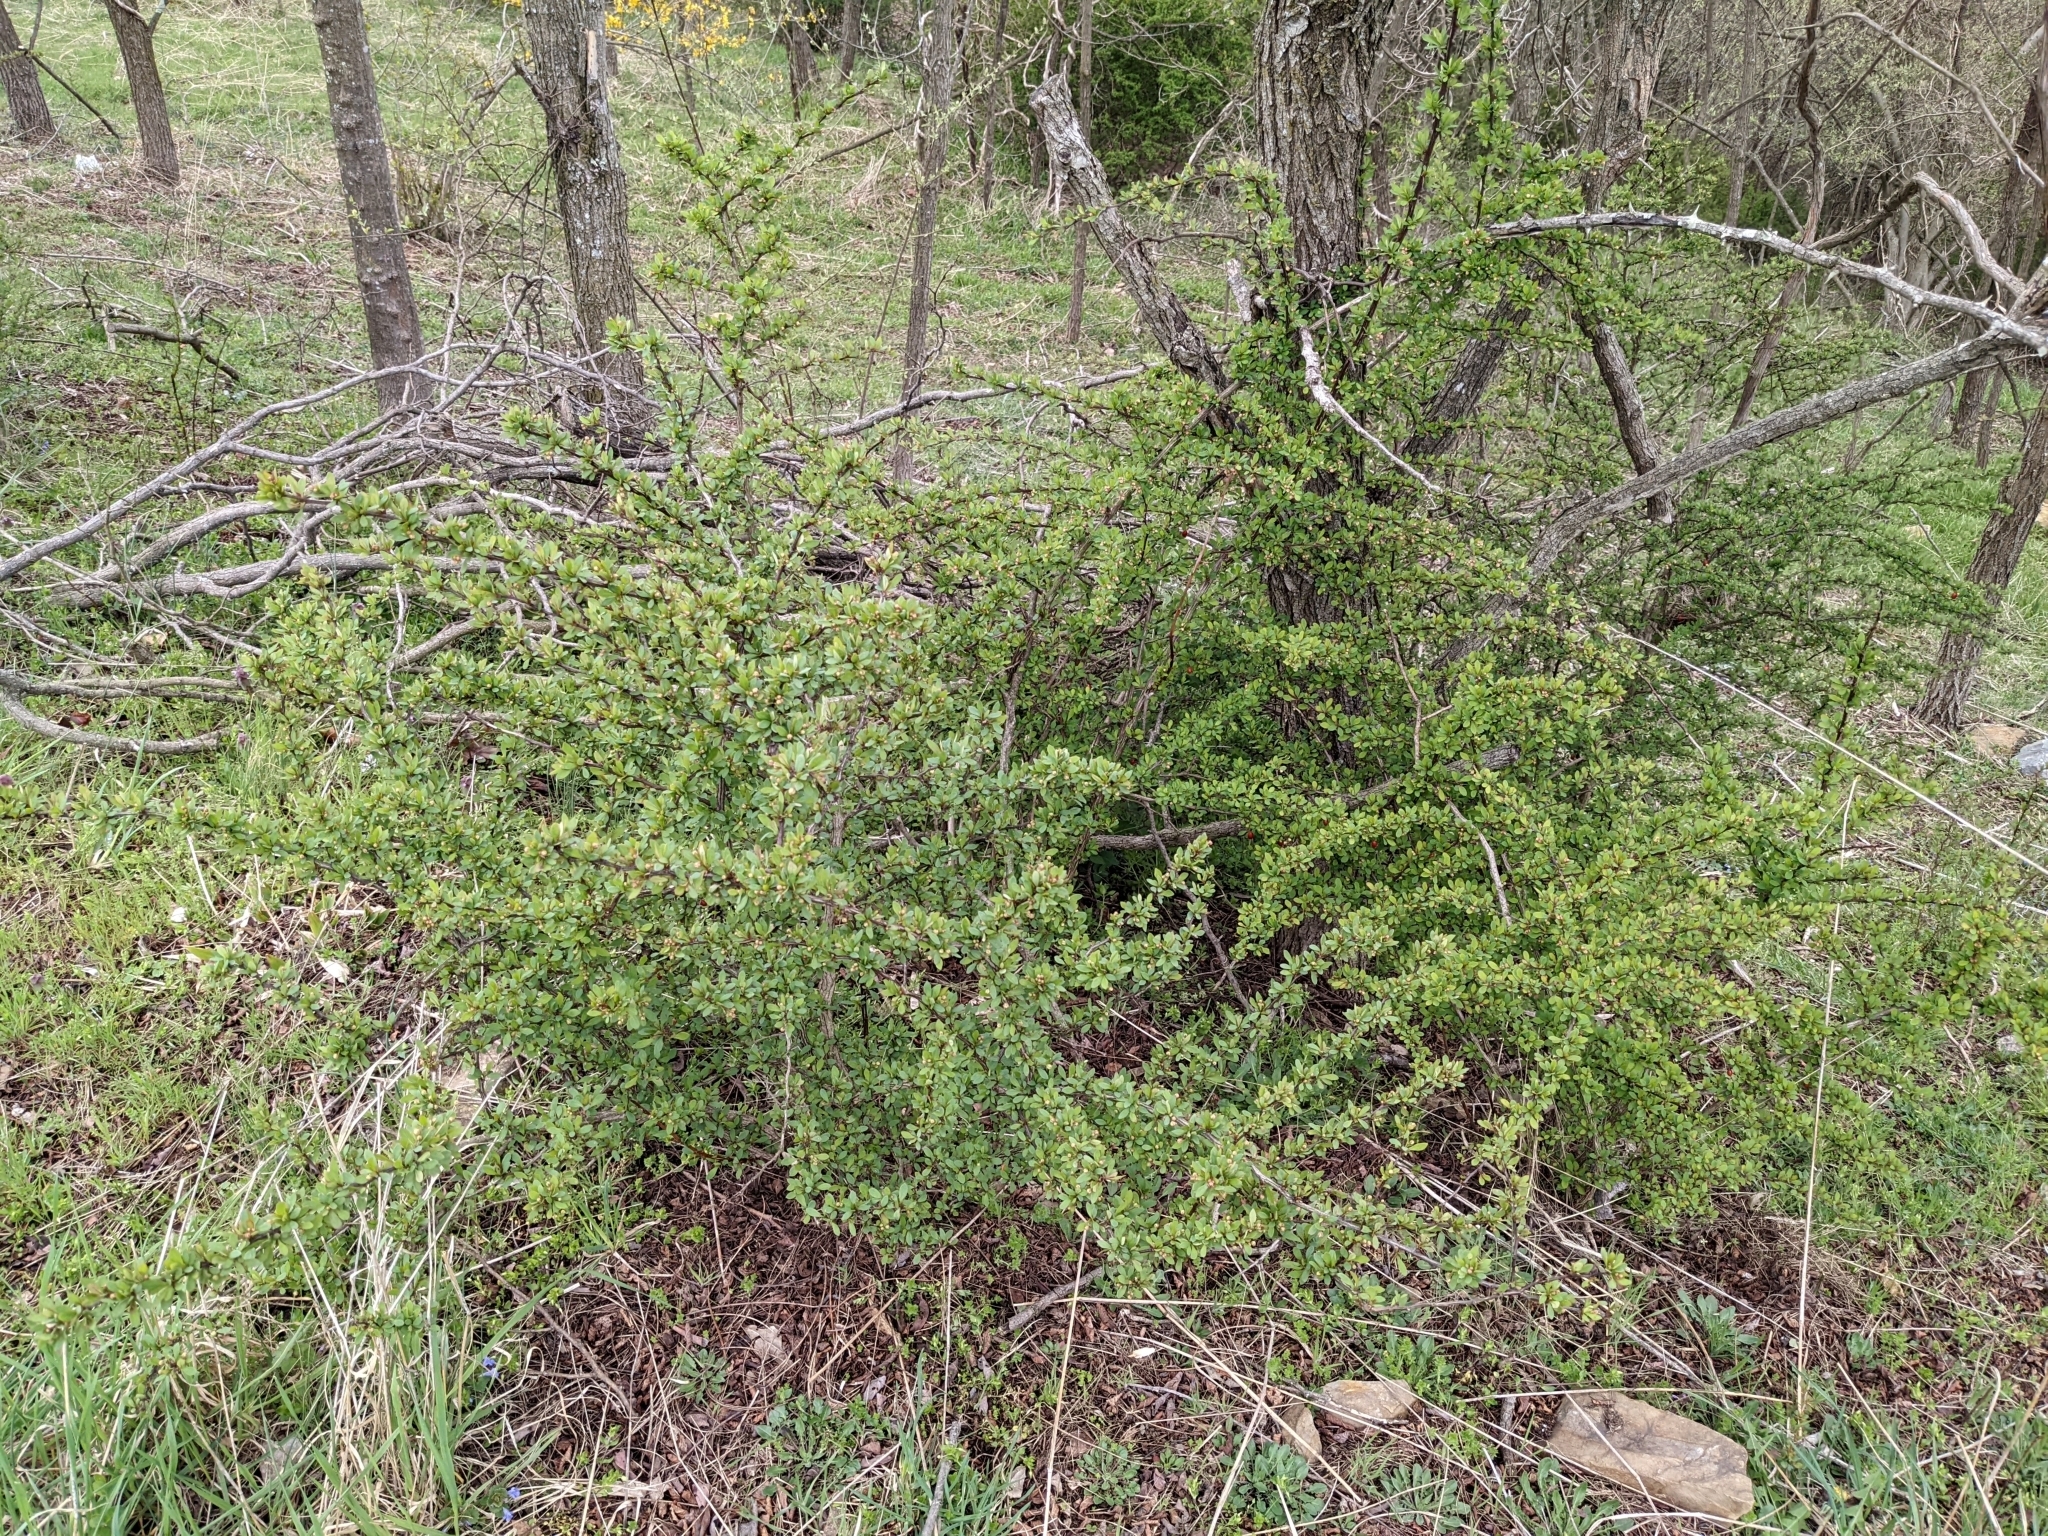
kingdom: Plantae
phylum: Tracheophyta
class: Magnoliopsida
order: Ranunculales
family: Berberidaceae
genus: Berberis
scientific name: Berberis thunbergii
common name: Japanese barberry
